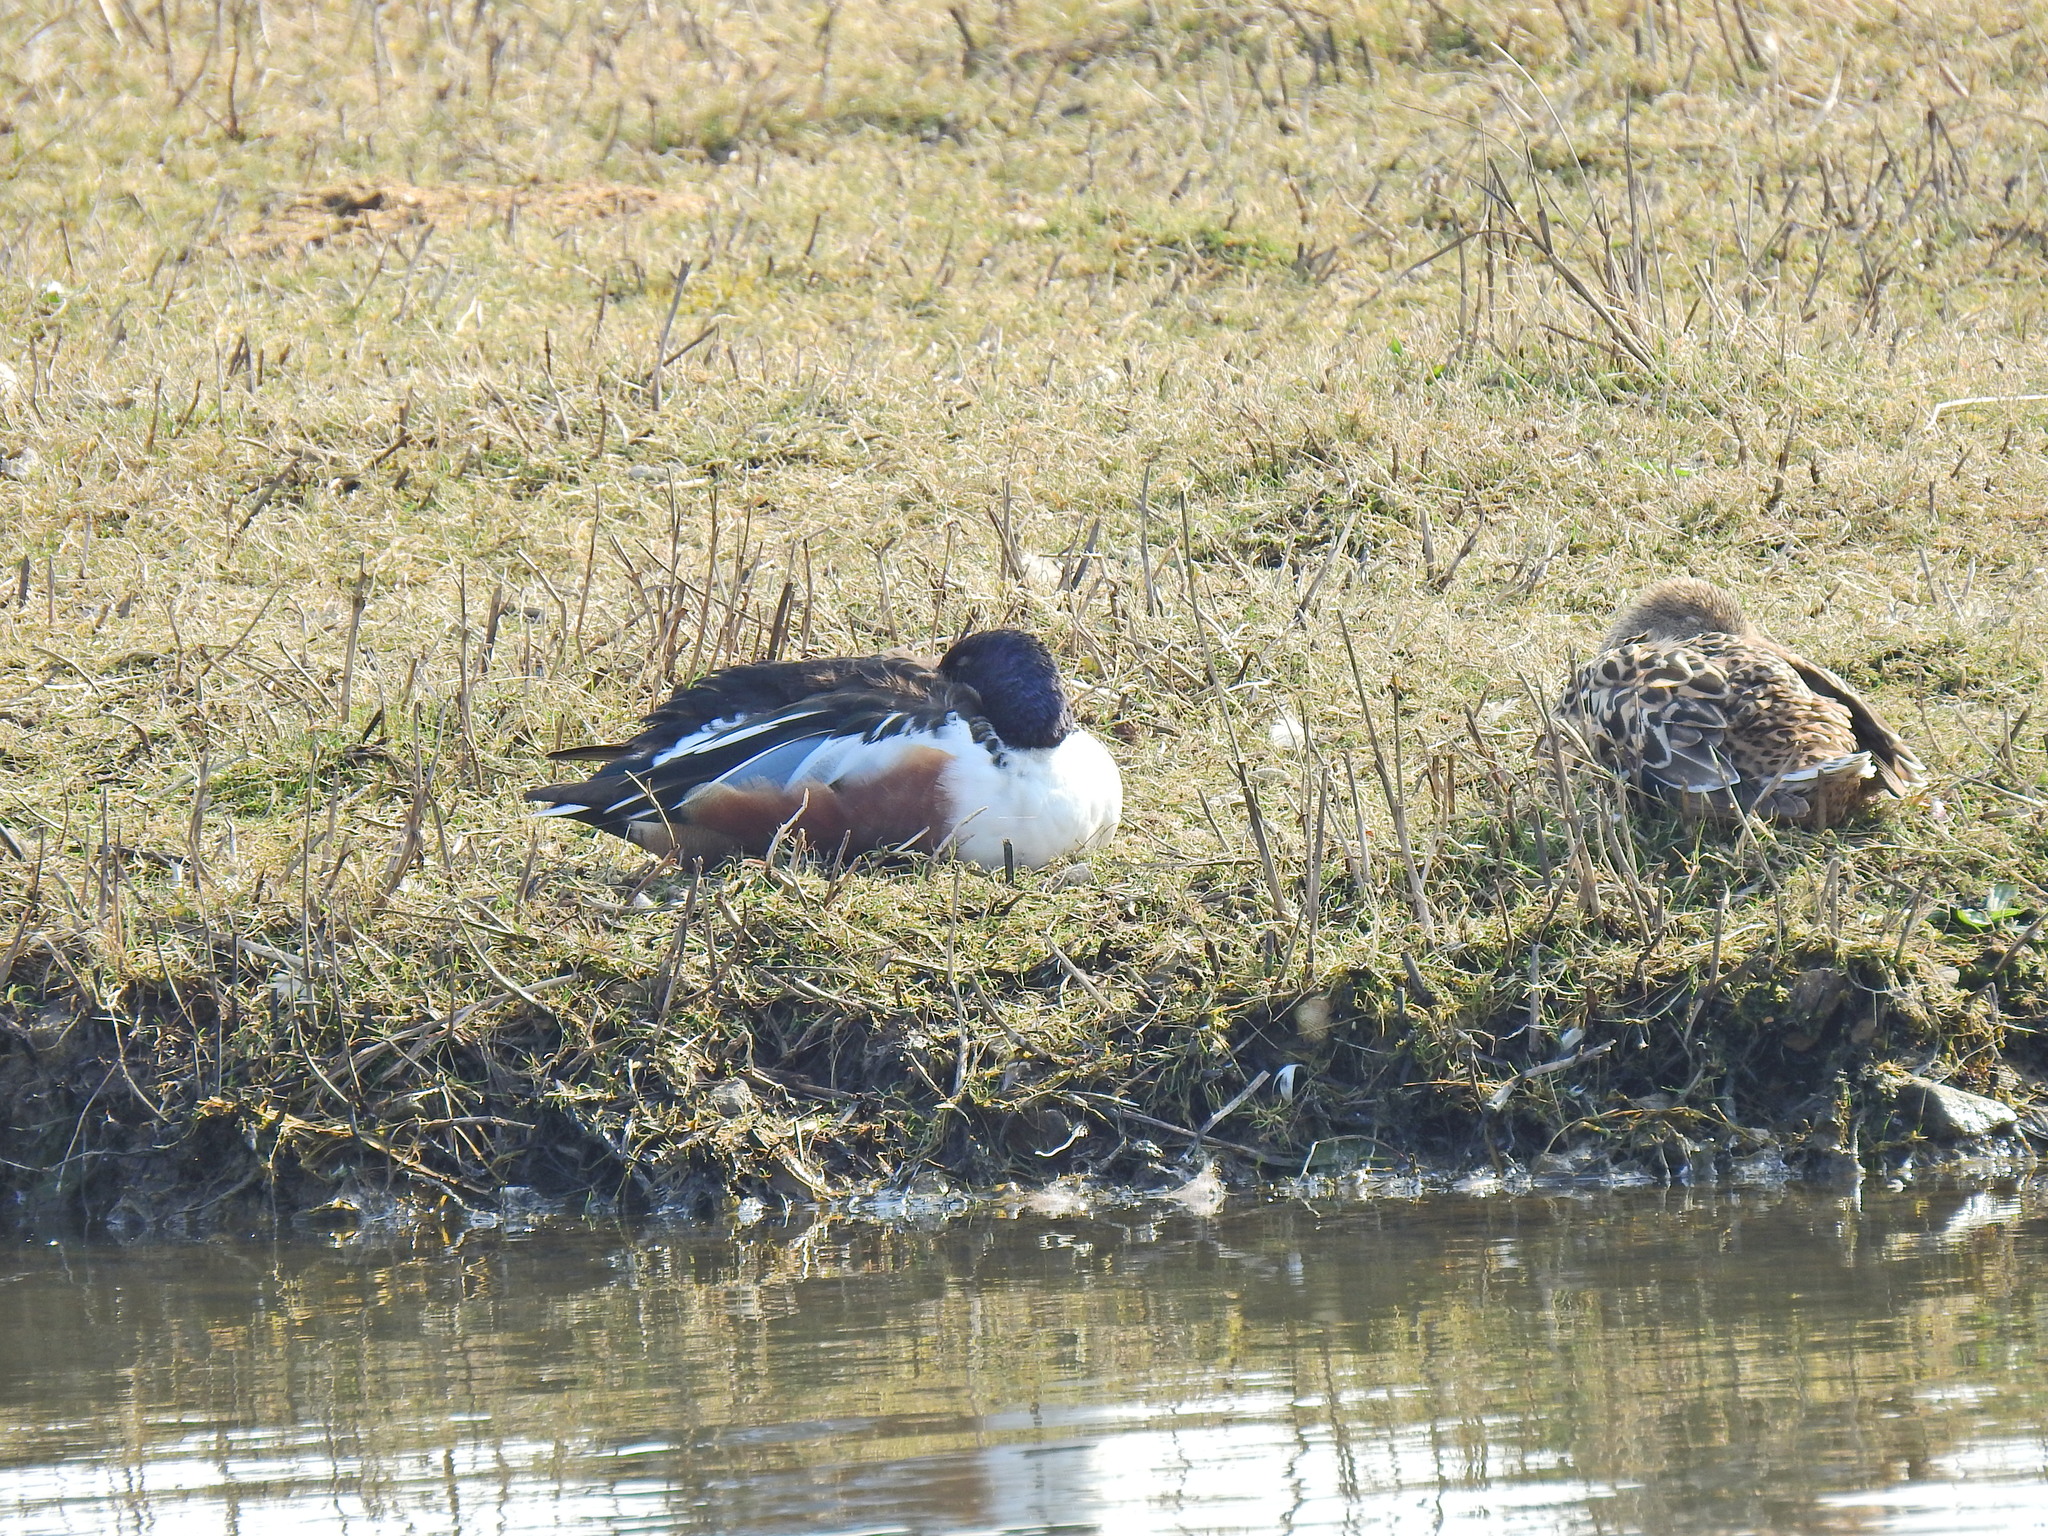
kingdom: Animalia
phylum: Chordata
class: Aves
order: Anseriformes
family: Anatidae
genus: Spatula
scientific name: Spatula clypeata
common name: Northern shoveler
